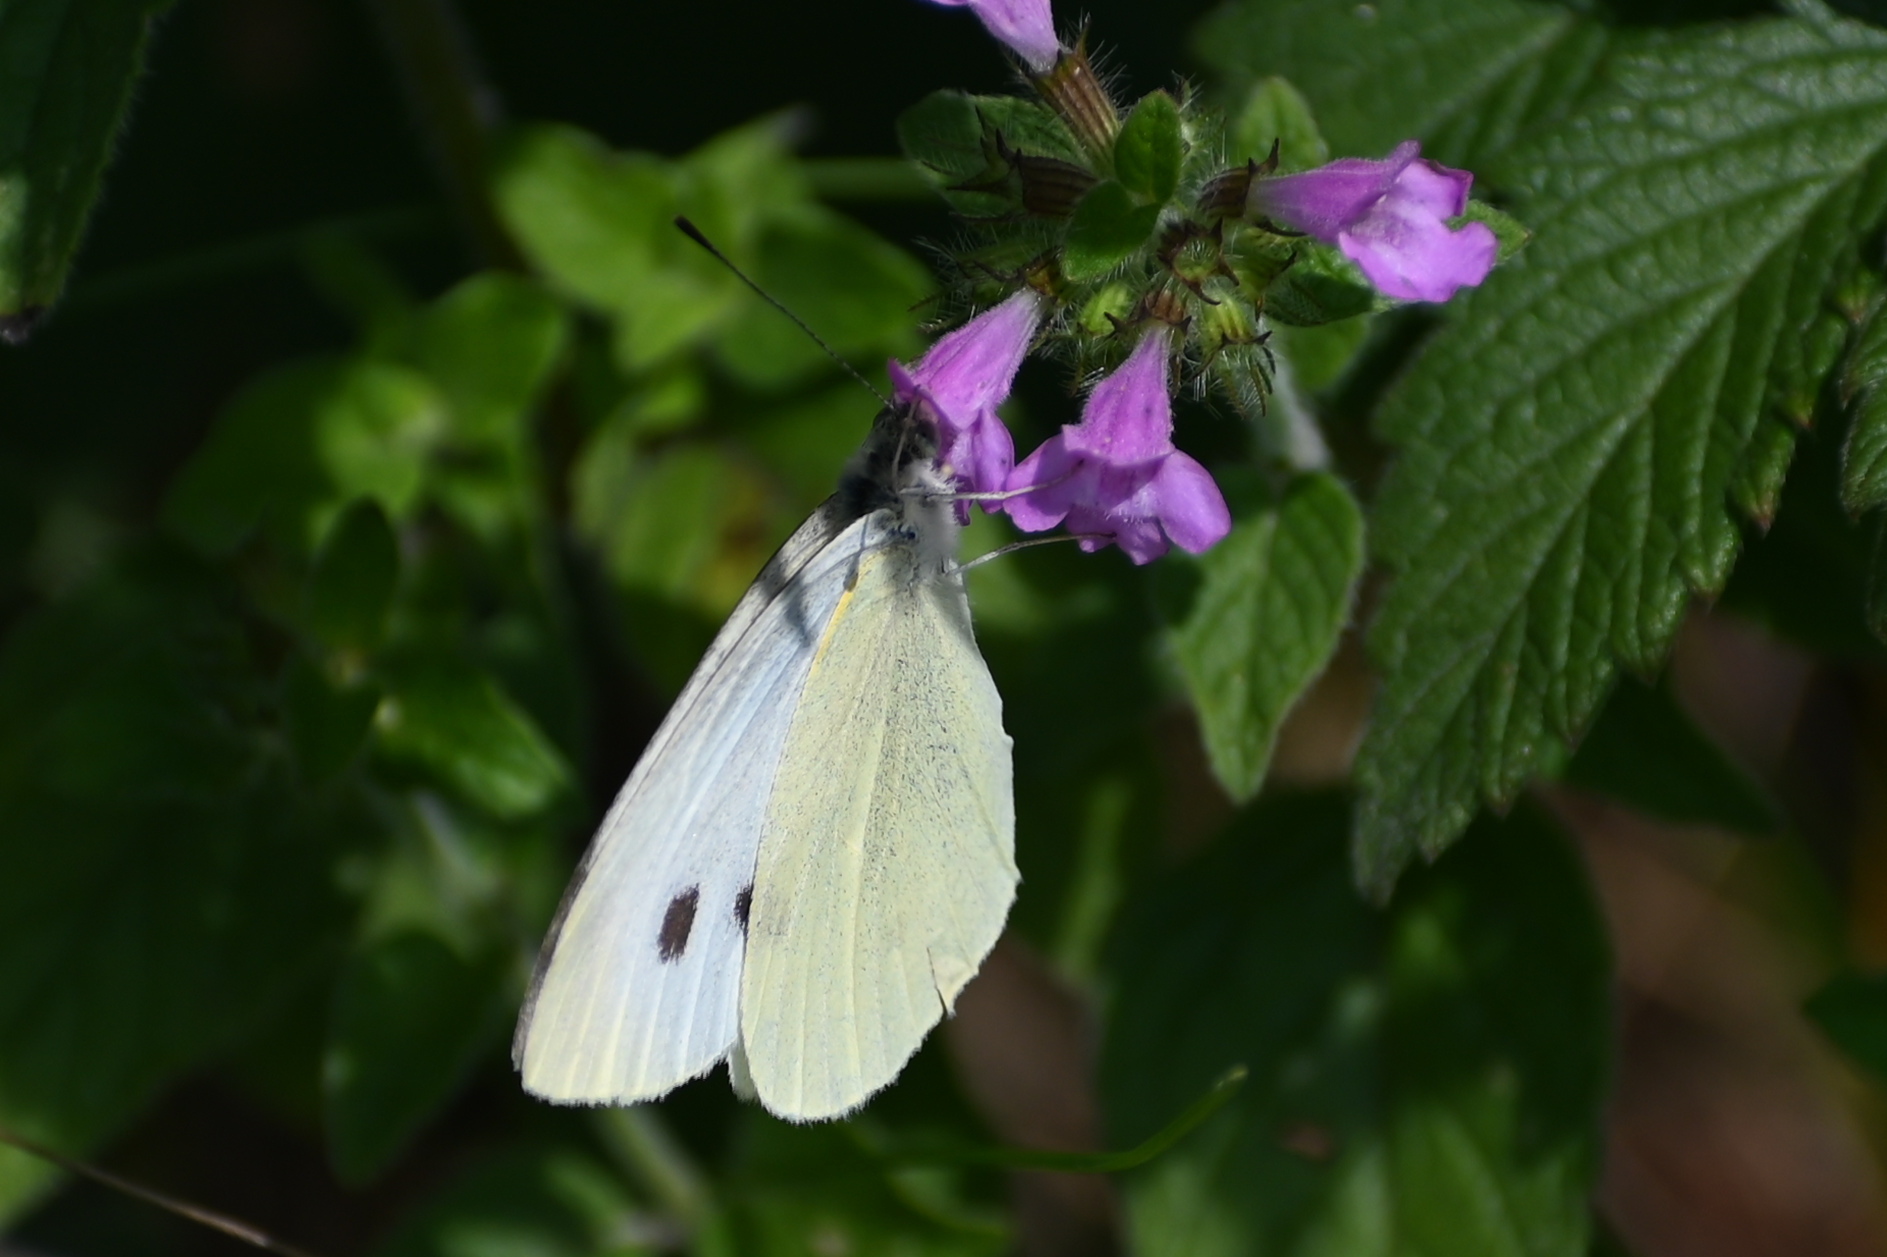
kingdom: Animalia
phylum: Arthropoda
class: Insecta
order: Lepidoptera
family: Pieridae
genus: Pieris
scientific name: Pieris rapae
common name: Small white
